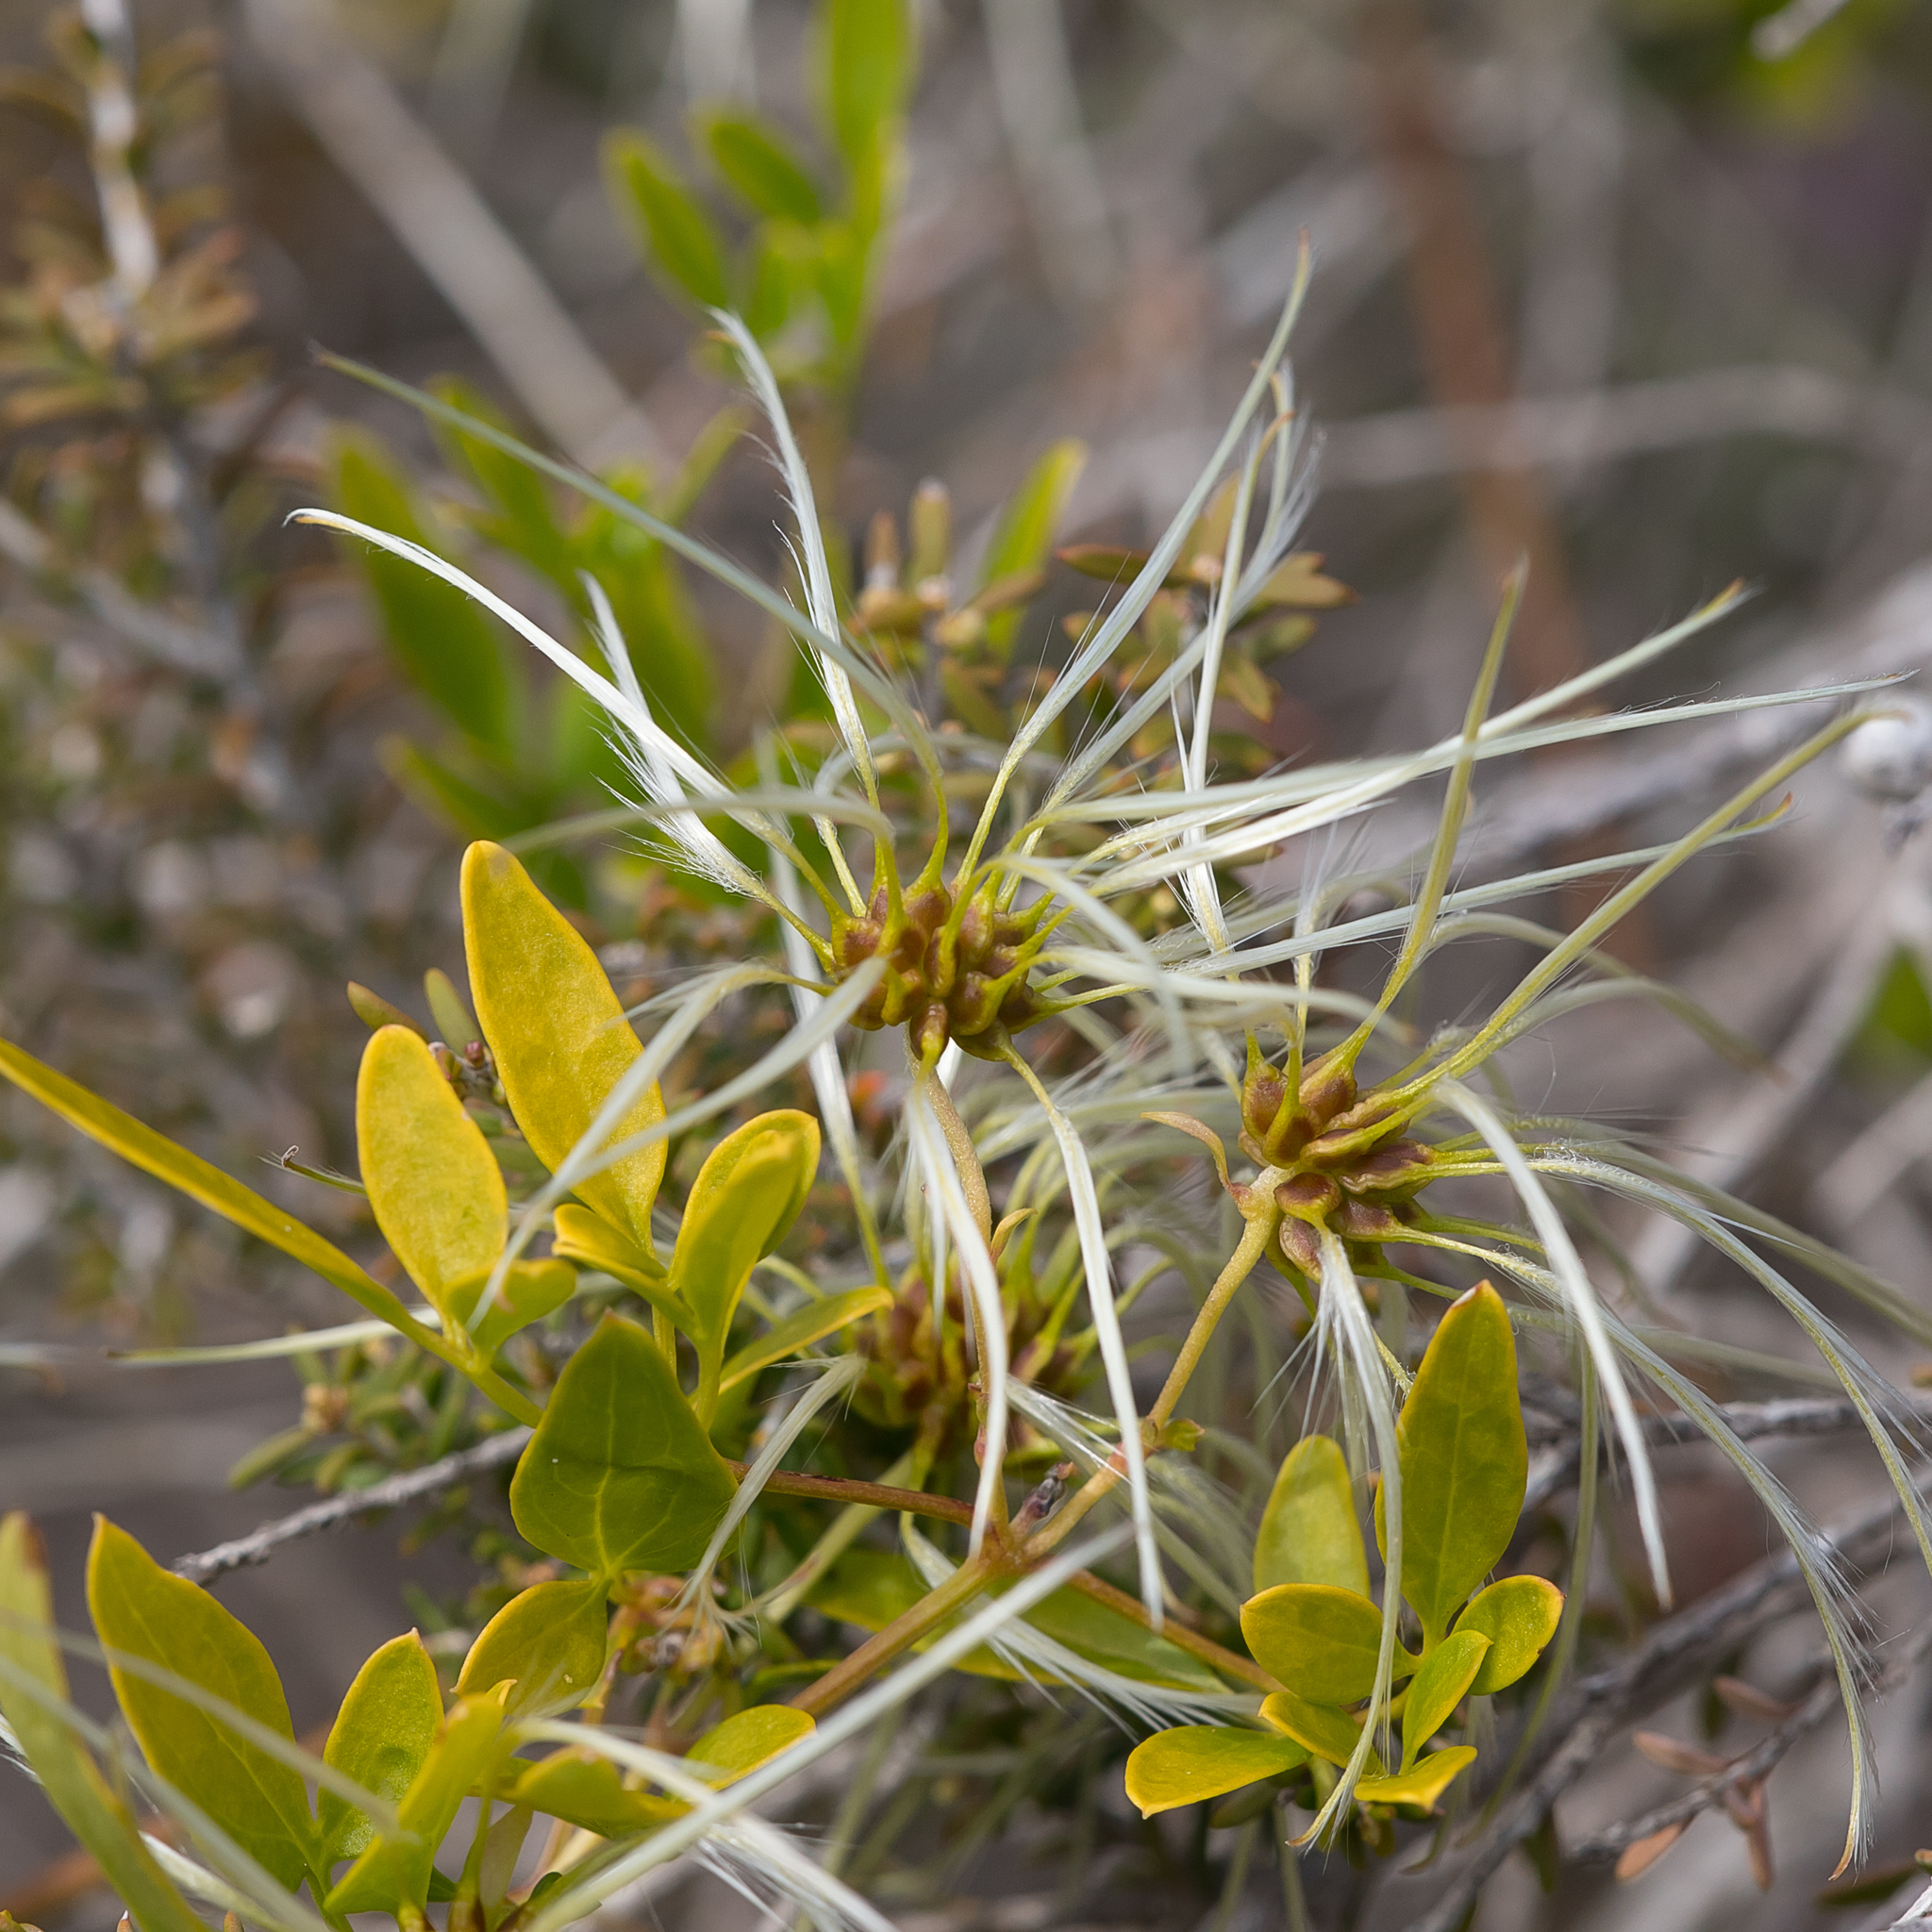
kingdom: Plantae
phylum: Tracheophyta
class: Magnoliopsida
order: Ranunculales
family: Ranunculaceae
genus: Clematis
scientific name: Clematis microphylla
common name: Headachevine
